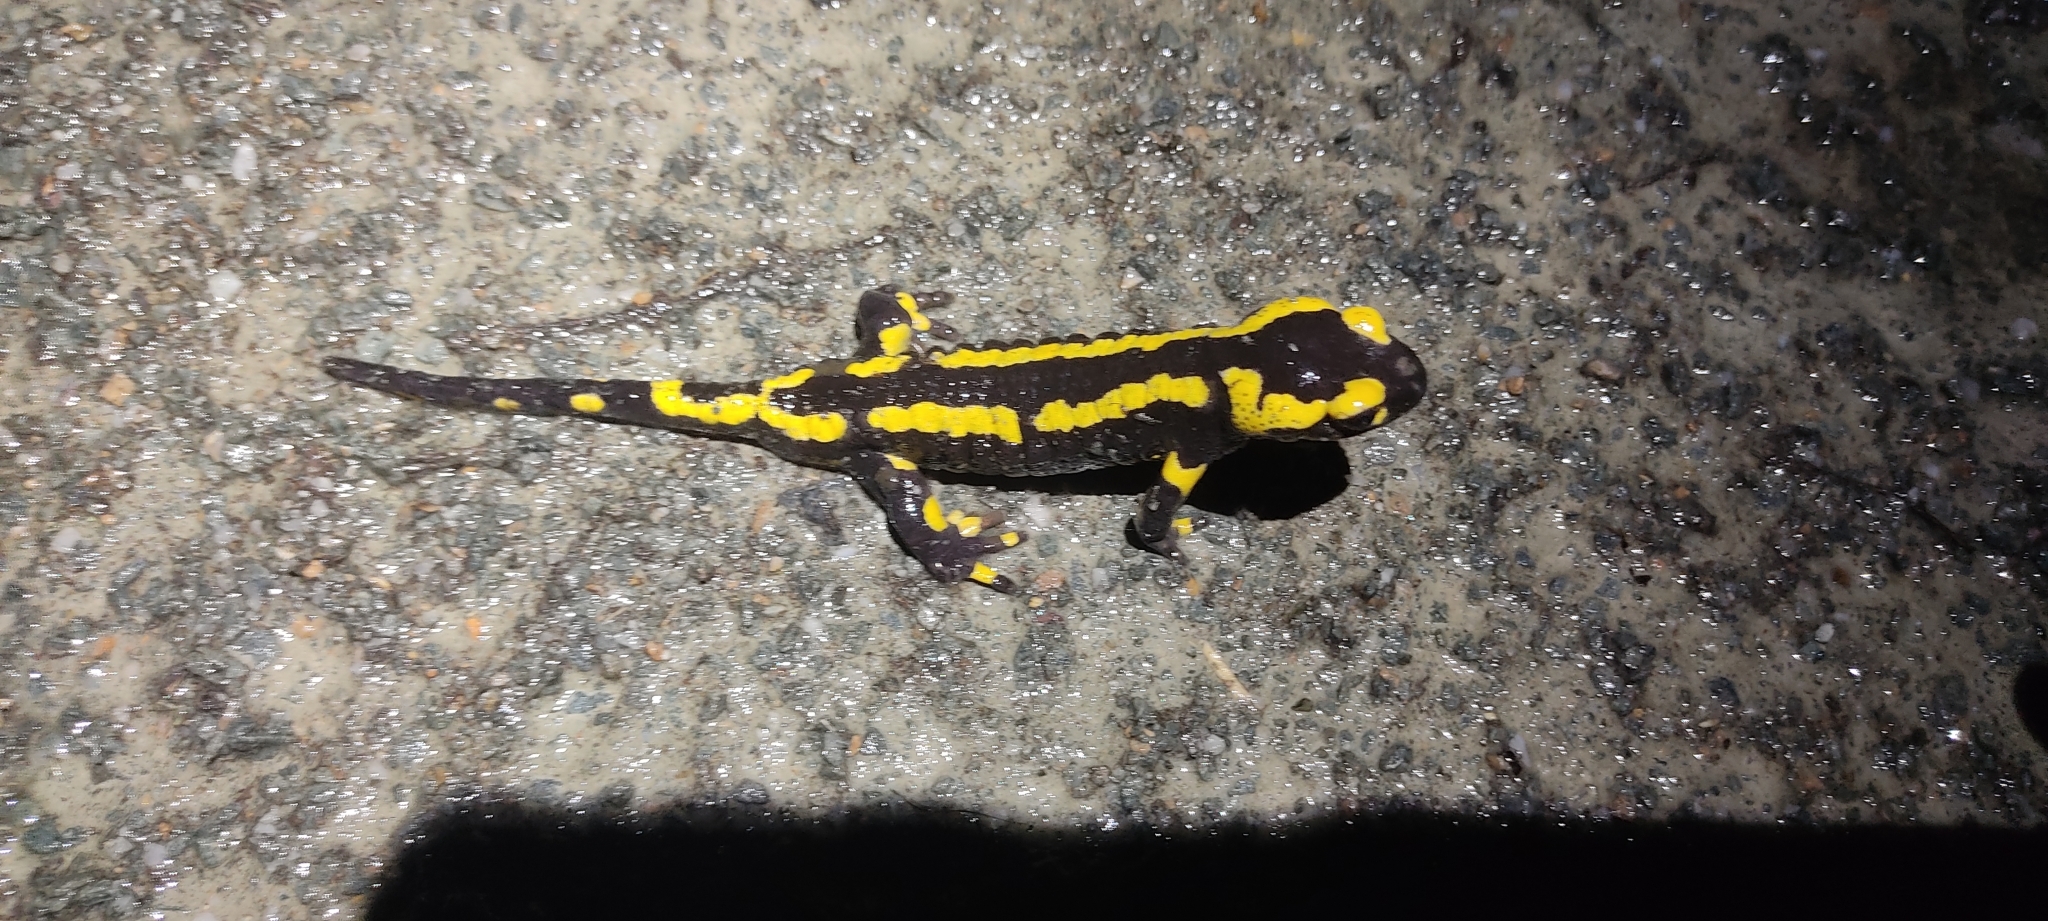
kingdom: Animalia
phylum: Chordata
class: Amphibia
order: Caudata
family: Salamandridae
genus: Salamandra
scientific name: Salamandra salamandra
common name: Fire salamander
